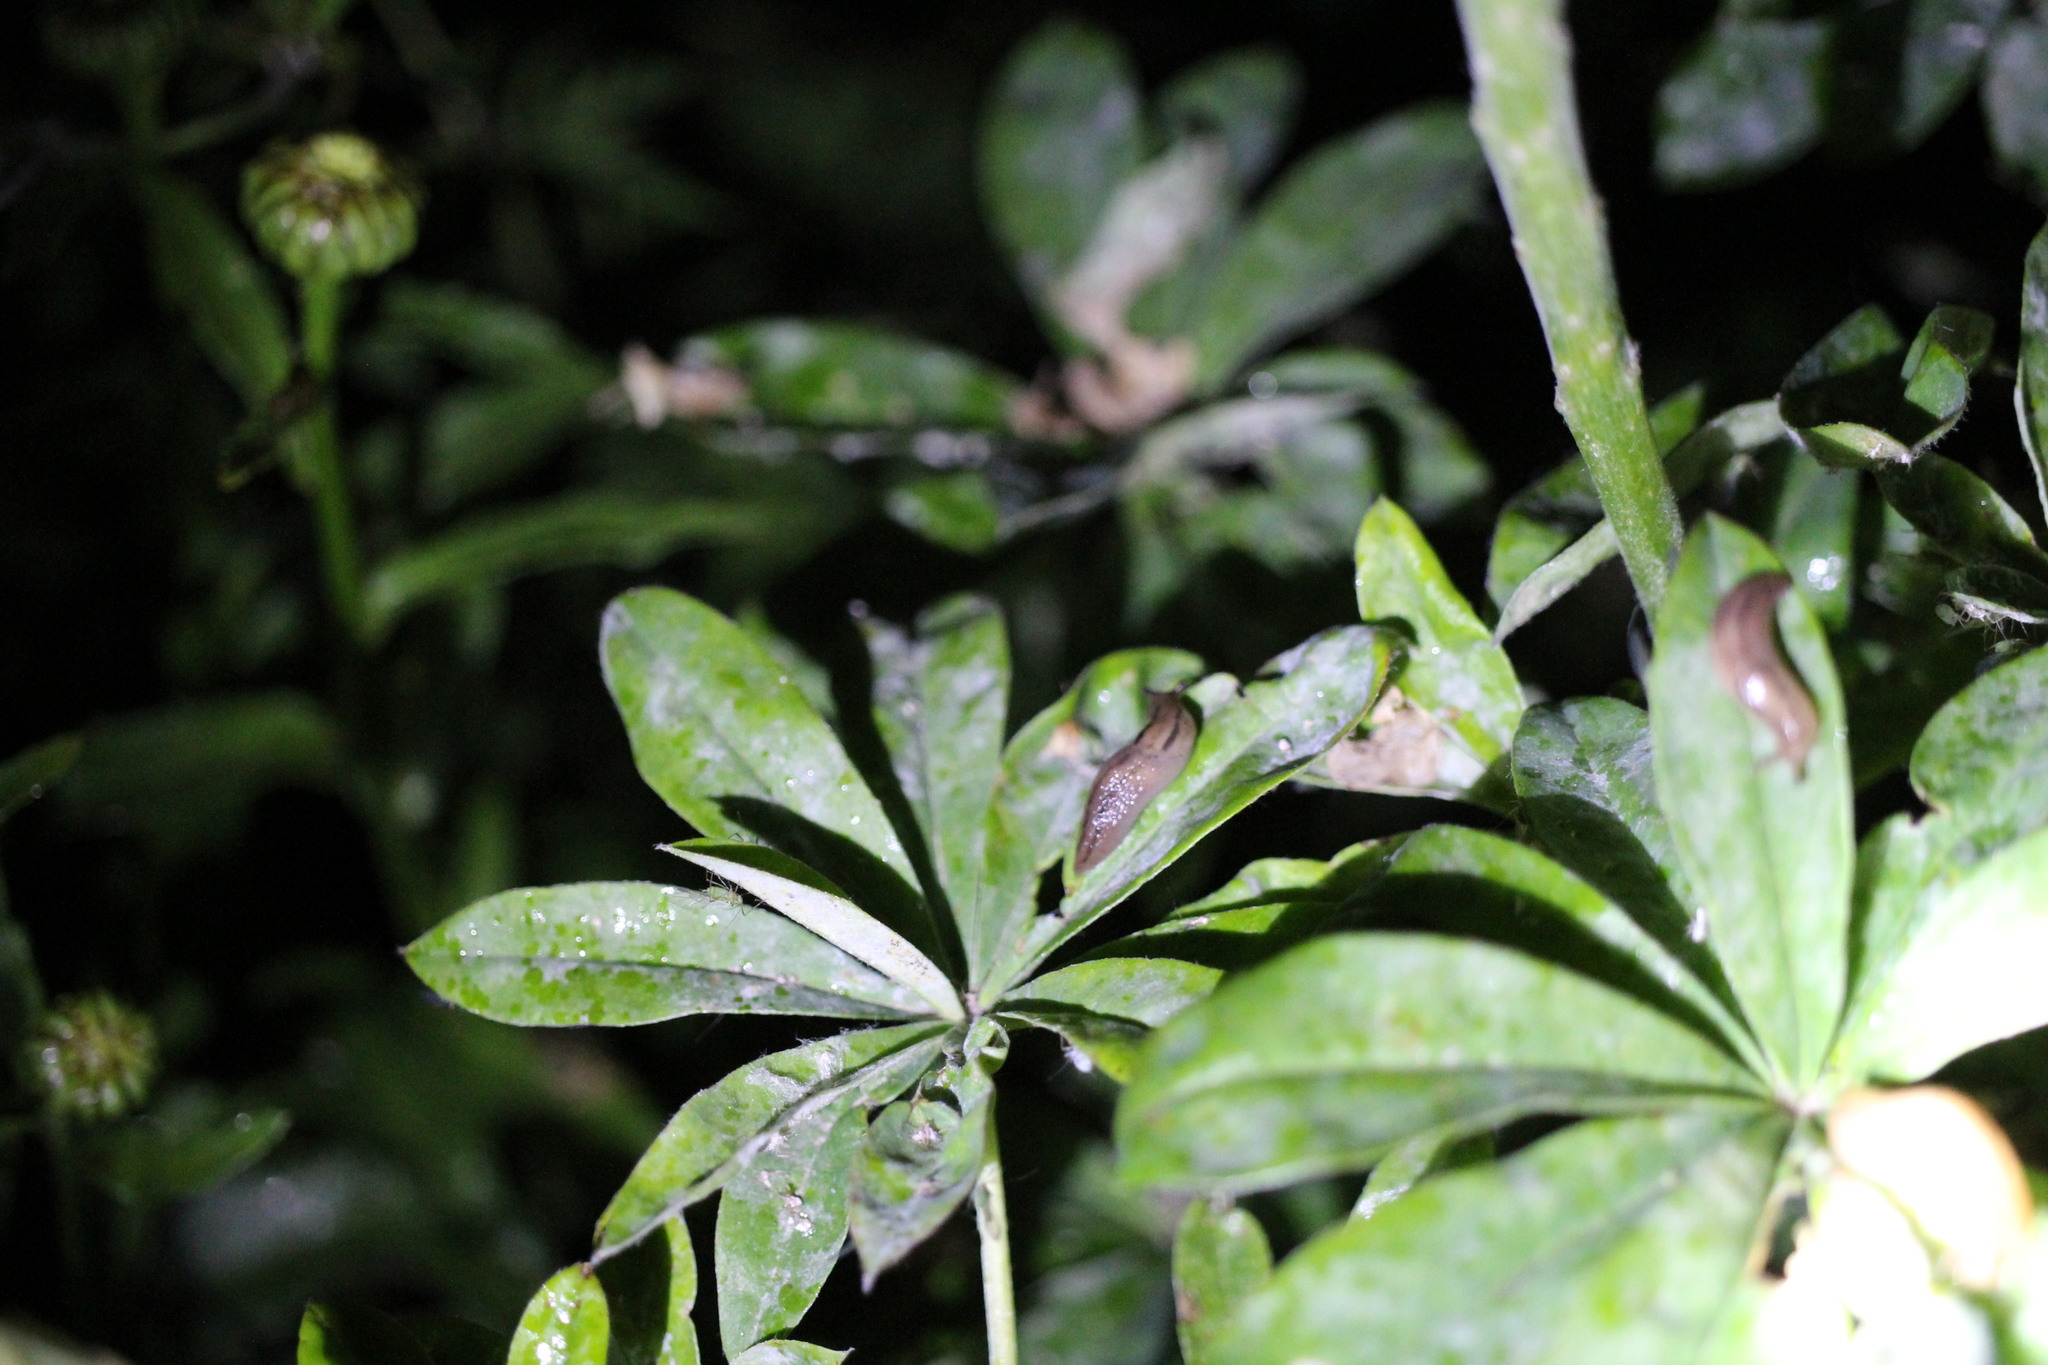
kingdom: Animalia
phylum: Mollusca
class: Gastropoda
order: Stylommatophora
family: Limacidae
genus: Ambigolimax
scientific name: Ambigolimax
